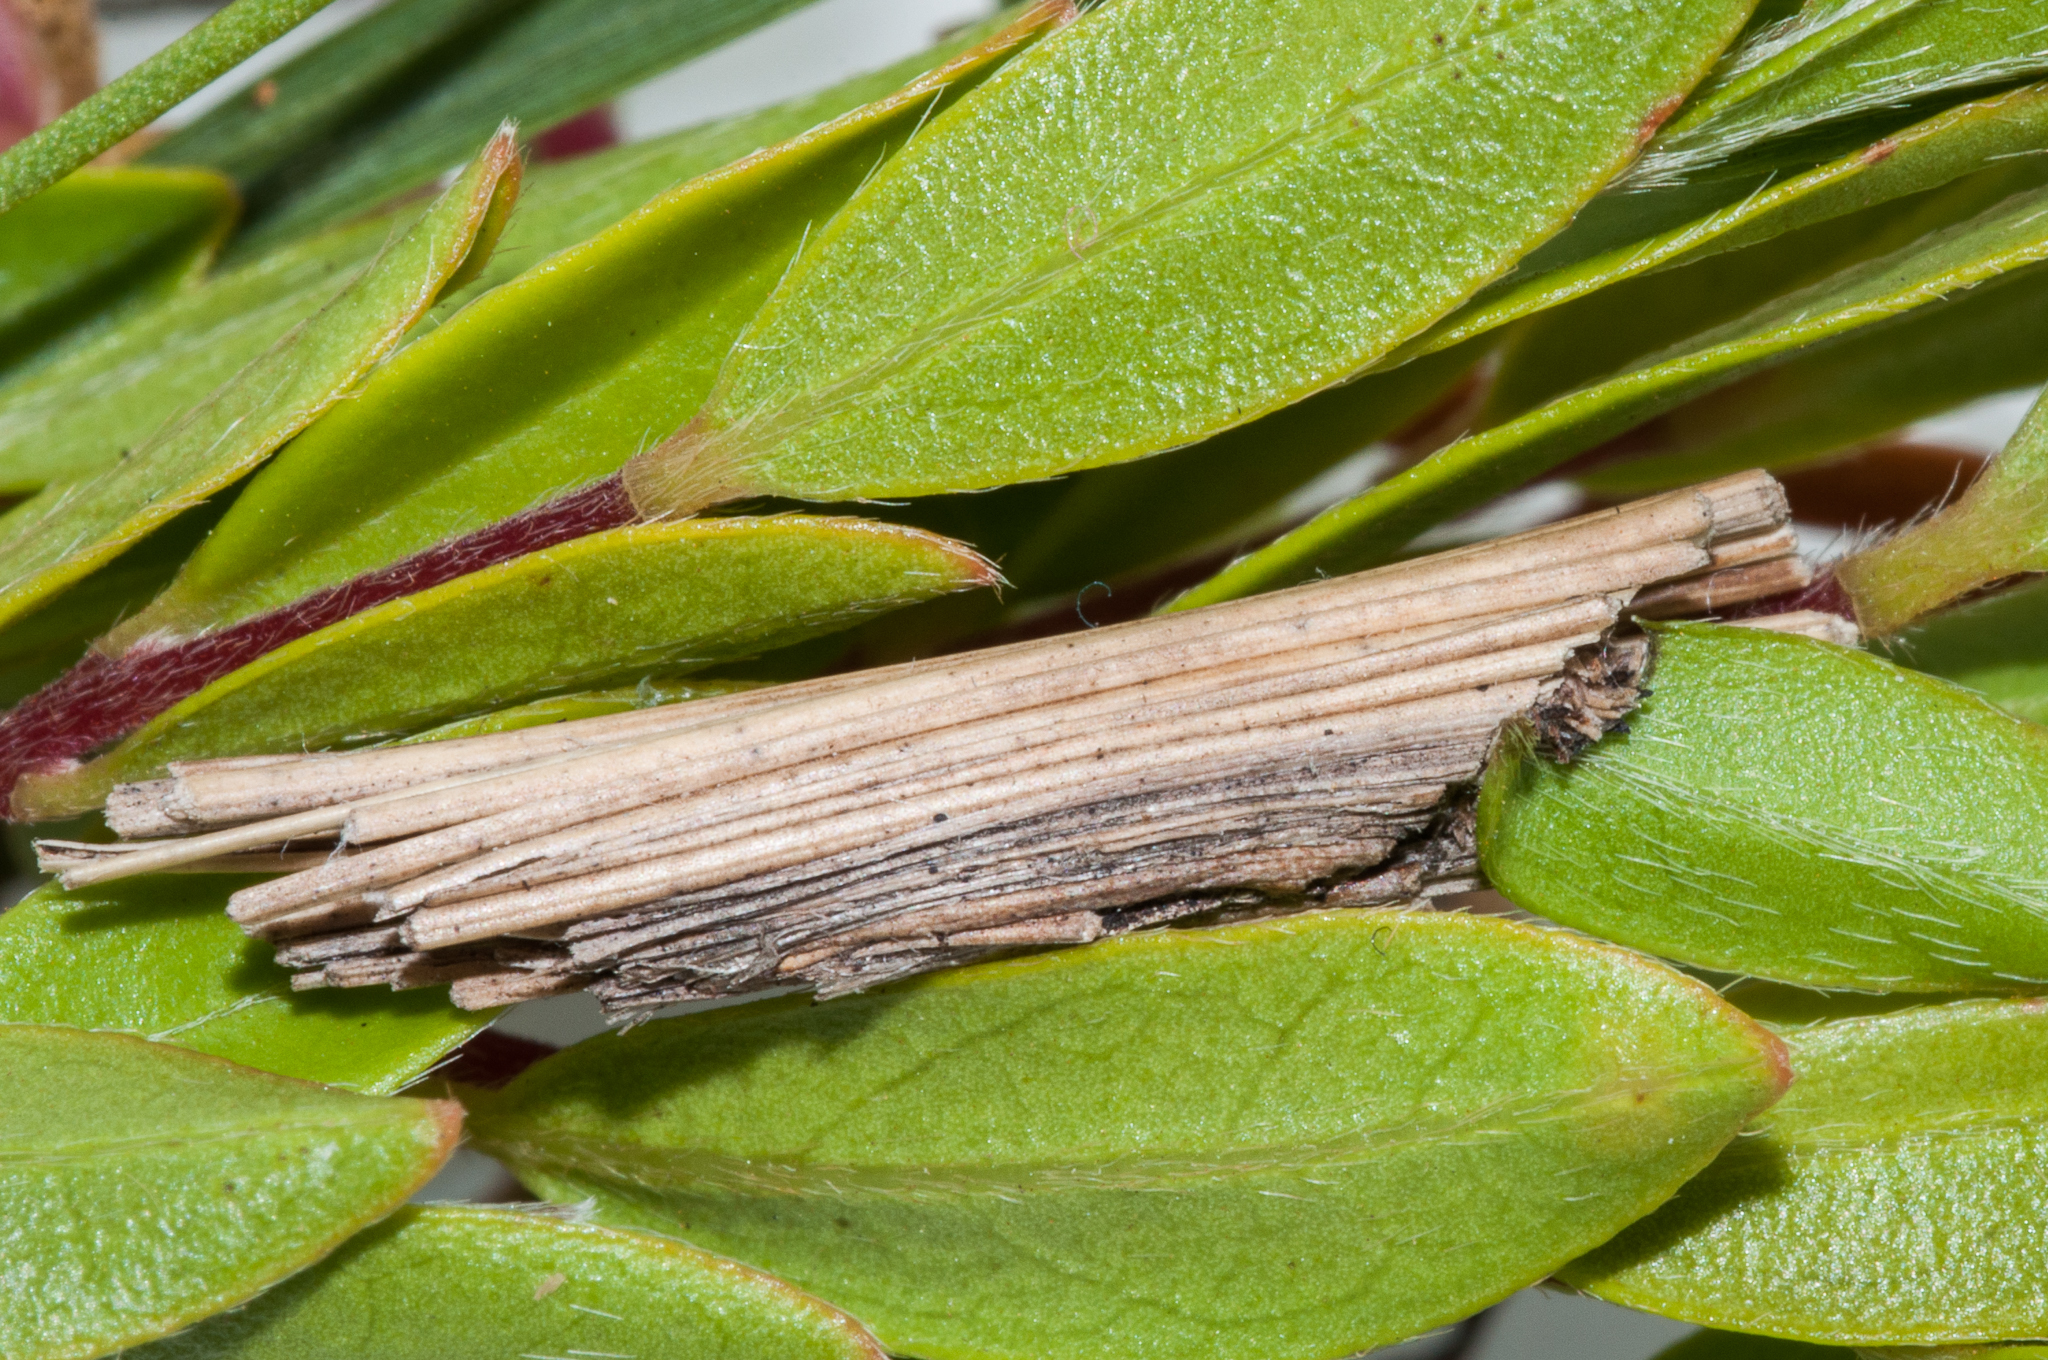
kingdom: Plantae
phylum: Tracheophyta
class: Magnoliopsida
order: Ericales
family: Ebenaceae
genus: Diospyros
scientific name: Diospyros glabra
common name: Fynbos star apple
